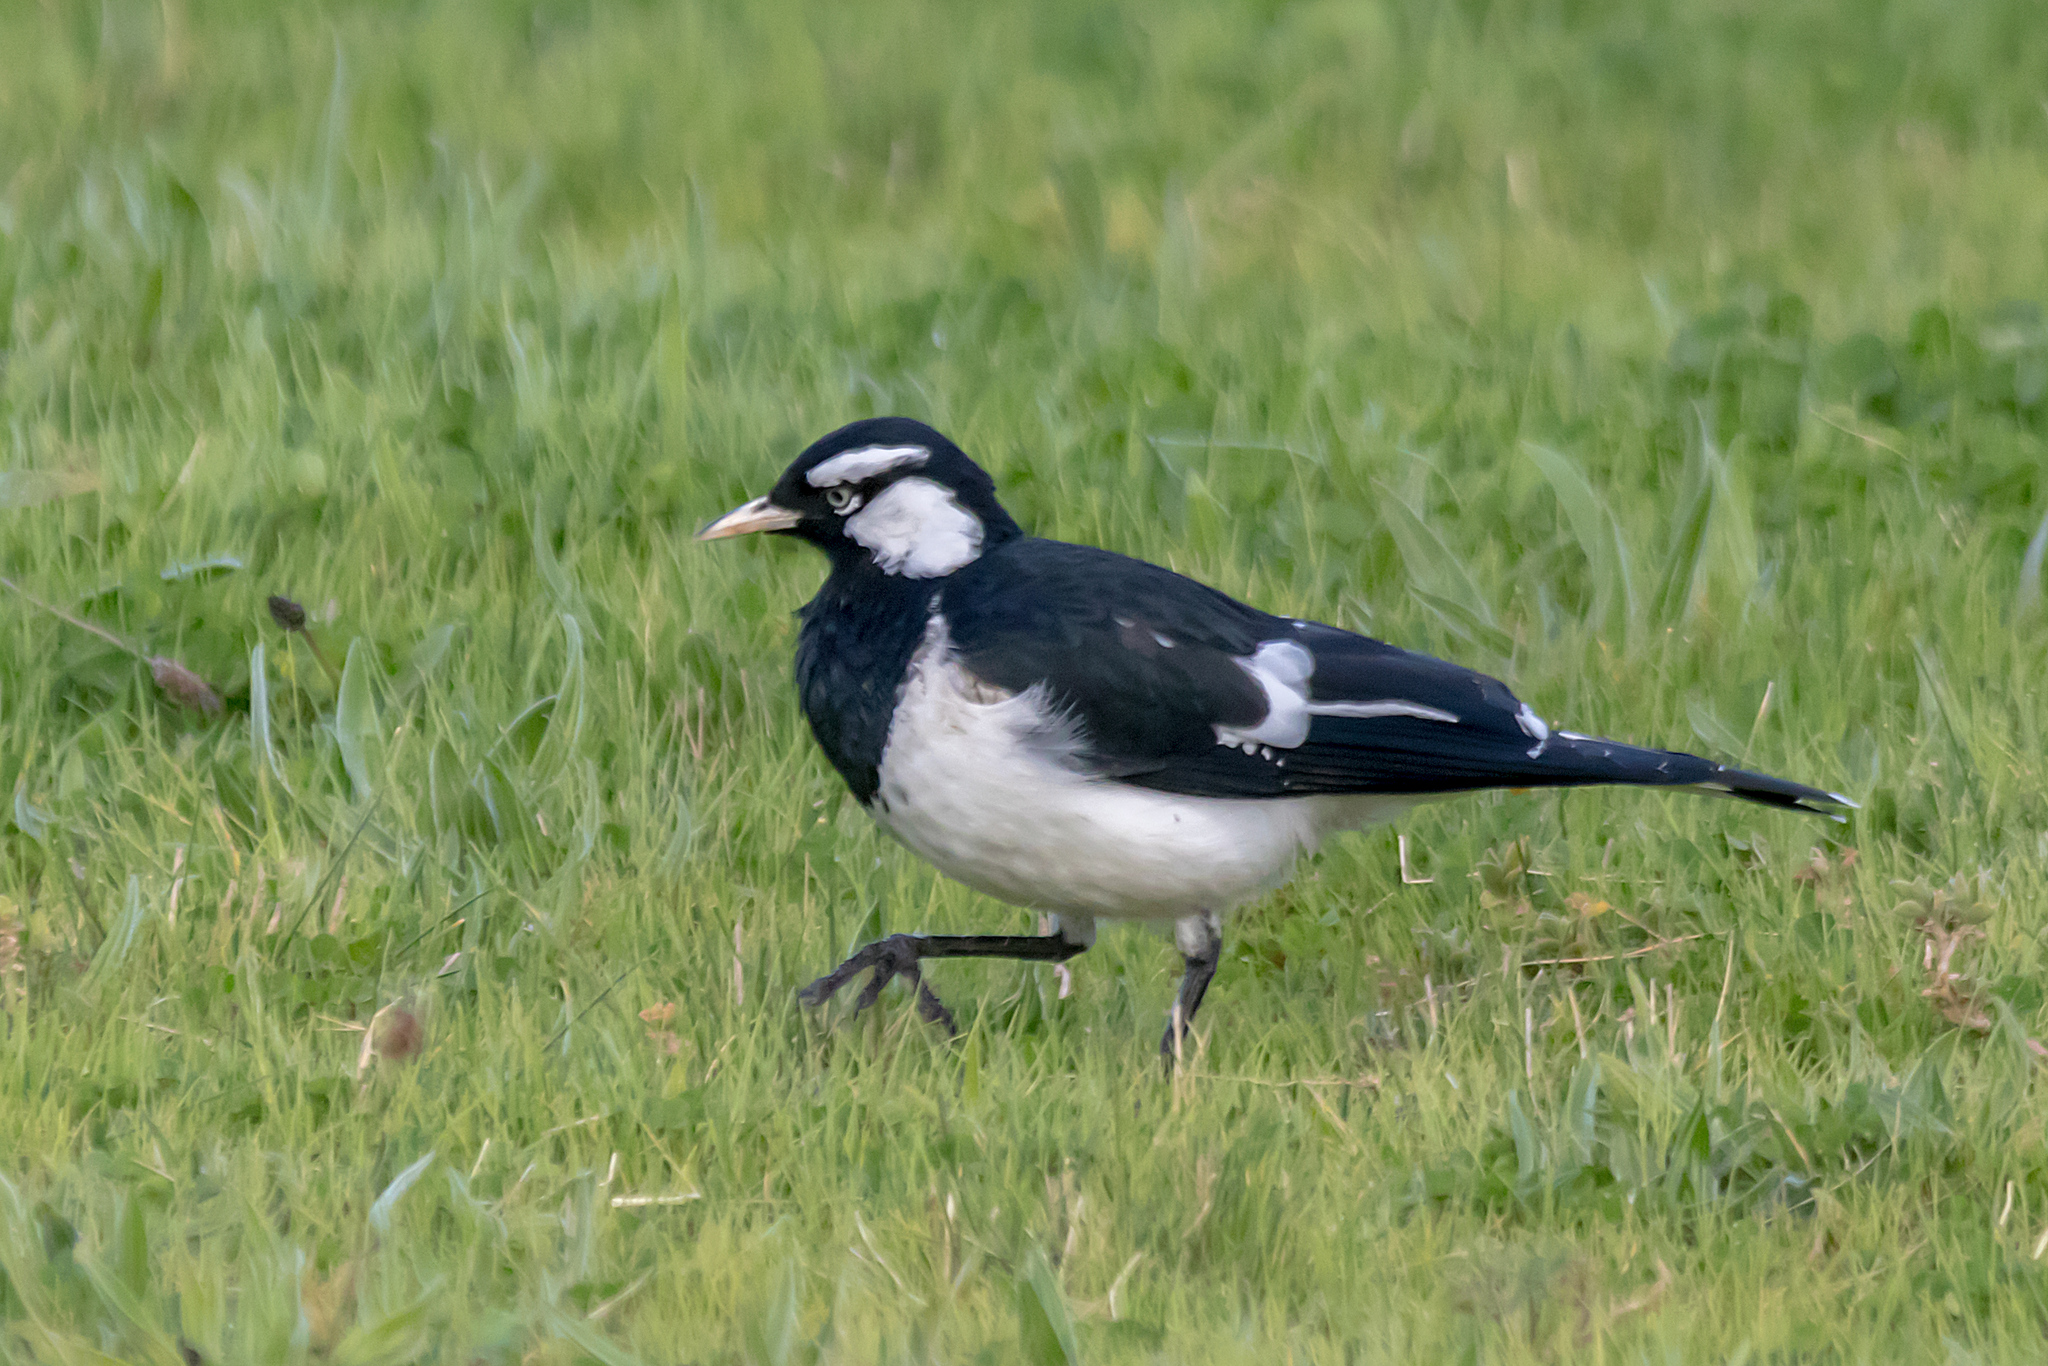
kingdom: Animalia
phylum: Chordata
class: Aves
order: Passeriformes
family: Monarchidae
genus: Grallina
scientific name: Grallina cyanoleuca
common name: Magpie-lark
